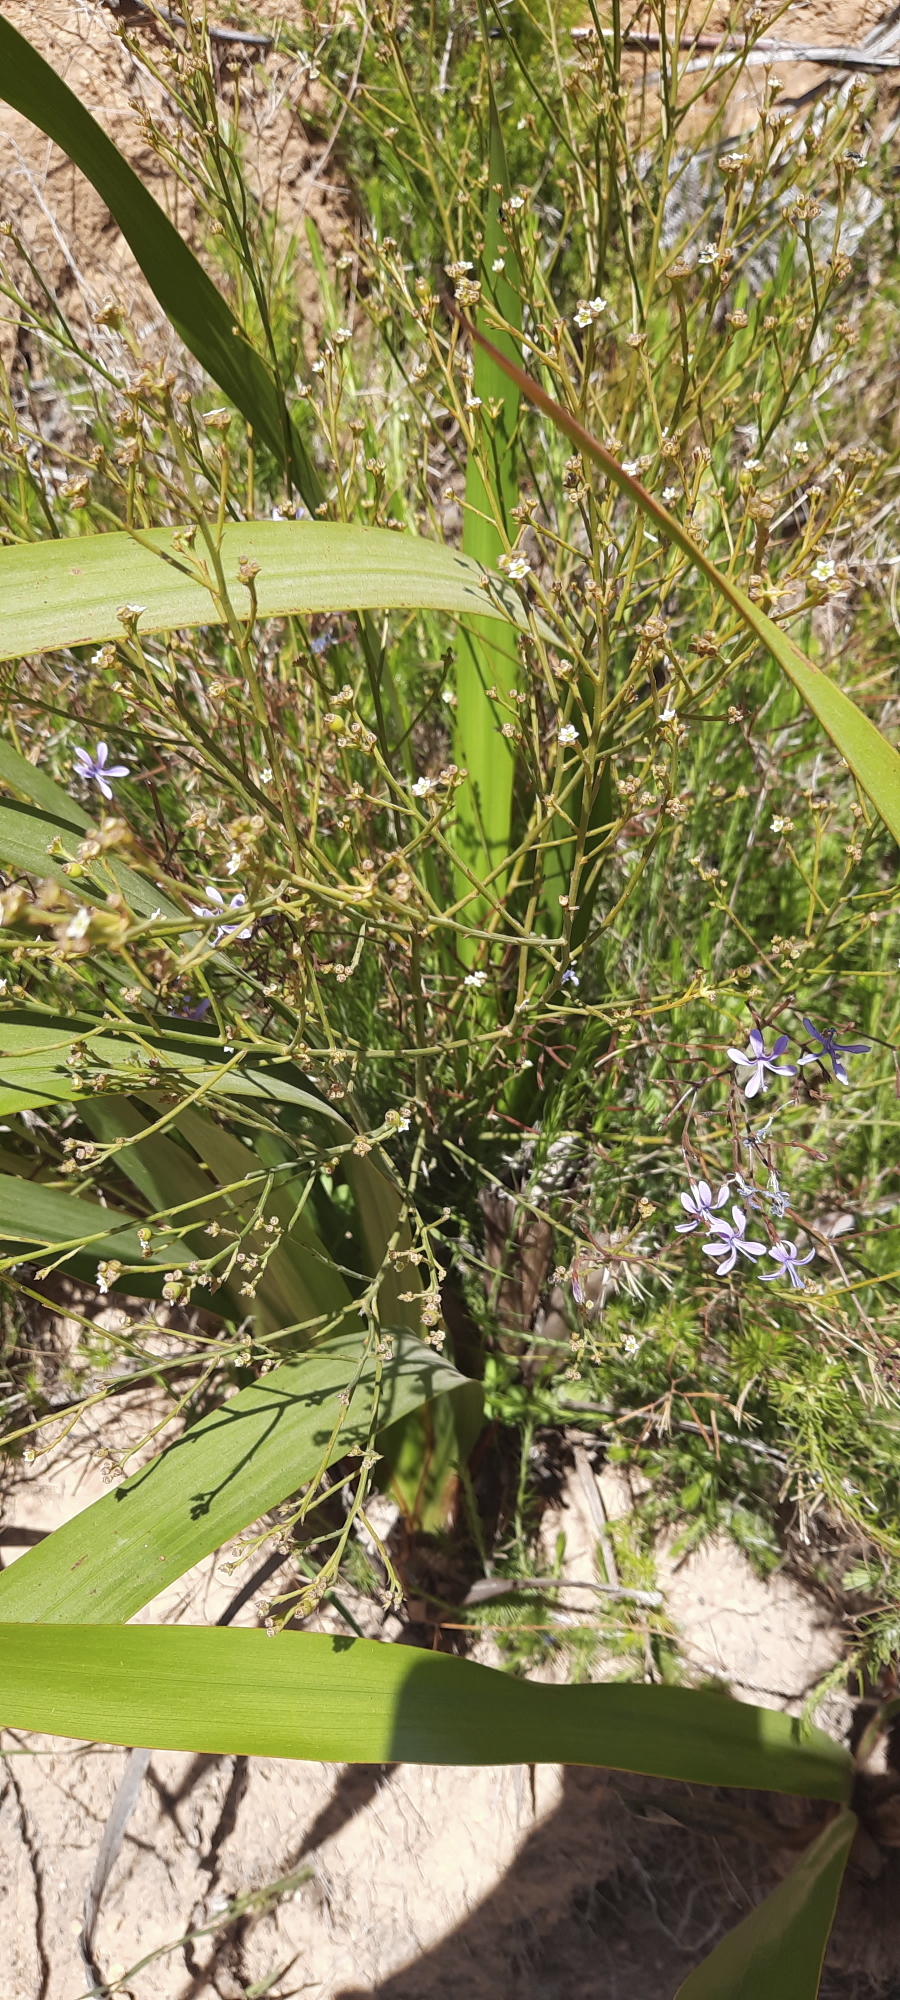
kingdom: Plantae
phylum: Tracheophyta
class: Magnoliopsida
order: Asterales
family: Campanulaceae
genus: Prismatocarpus
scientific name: Prismatocarpus diffusus
